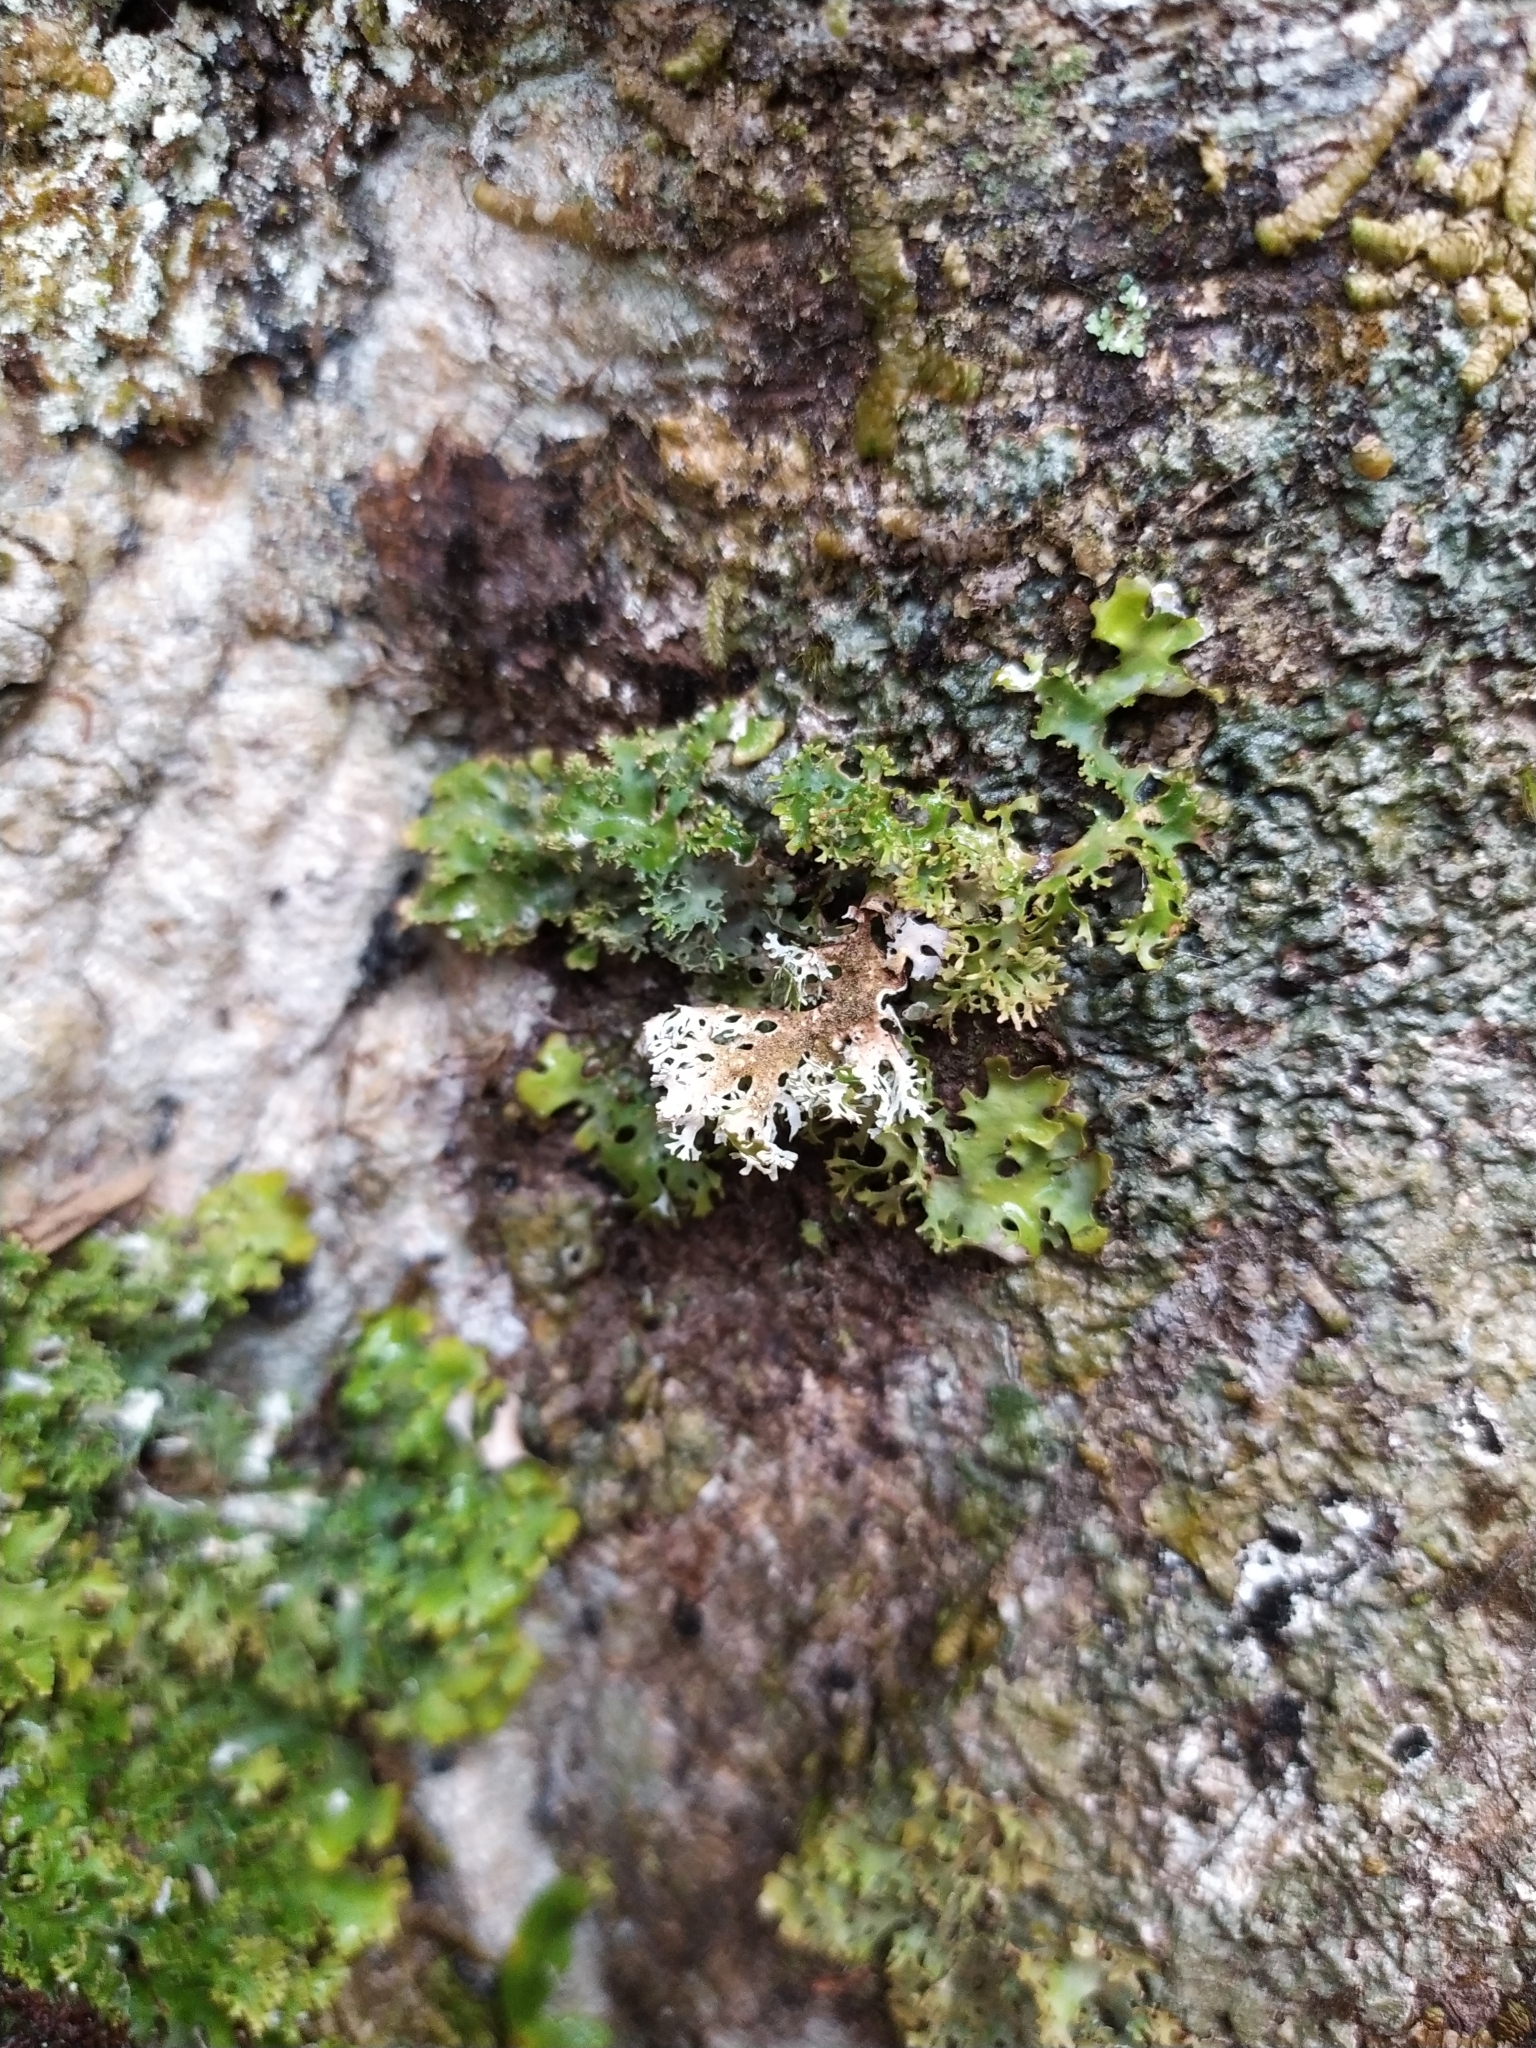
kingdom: Fungi
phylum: Ascomycota
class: Lecanoromycetes
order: Peltigerales
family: Lobariaceae
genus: Pseudocyphellaria
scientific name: Pseudocyphellaria multifida
